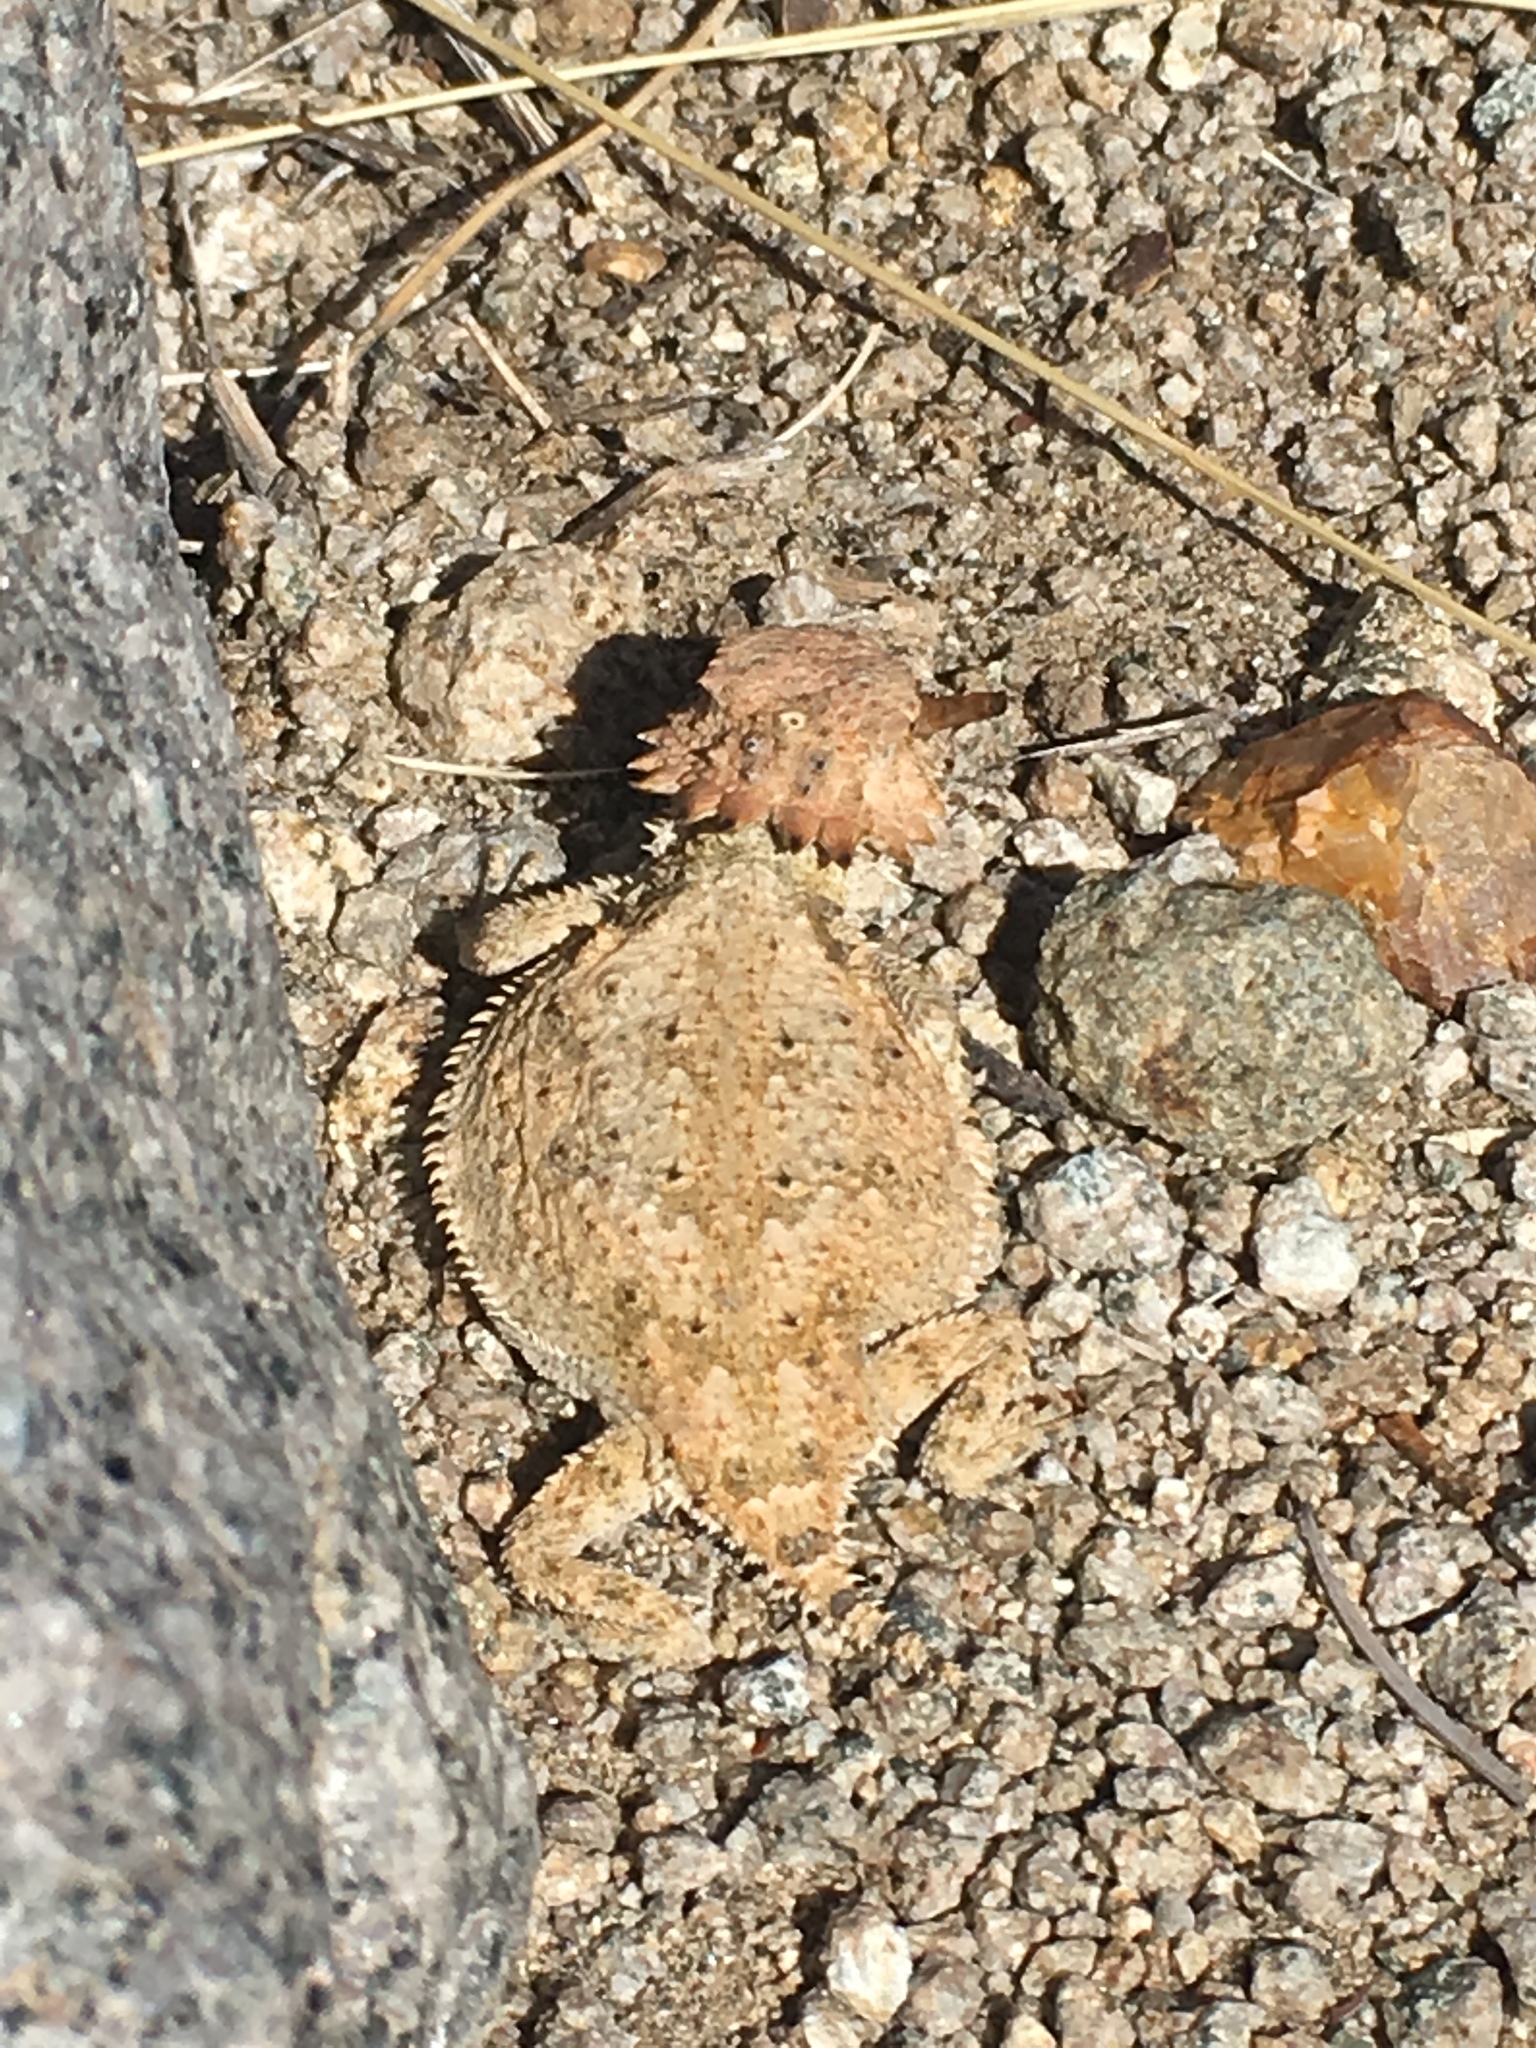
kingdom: Animalia
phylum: Chordata
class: Squamata
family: Phrynosomatidae
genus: Phrynosoma
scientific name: Phrynosoma solare
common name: Regal horned lizard
